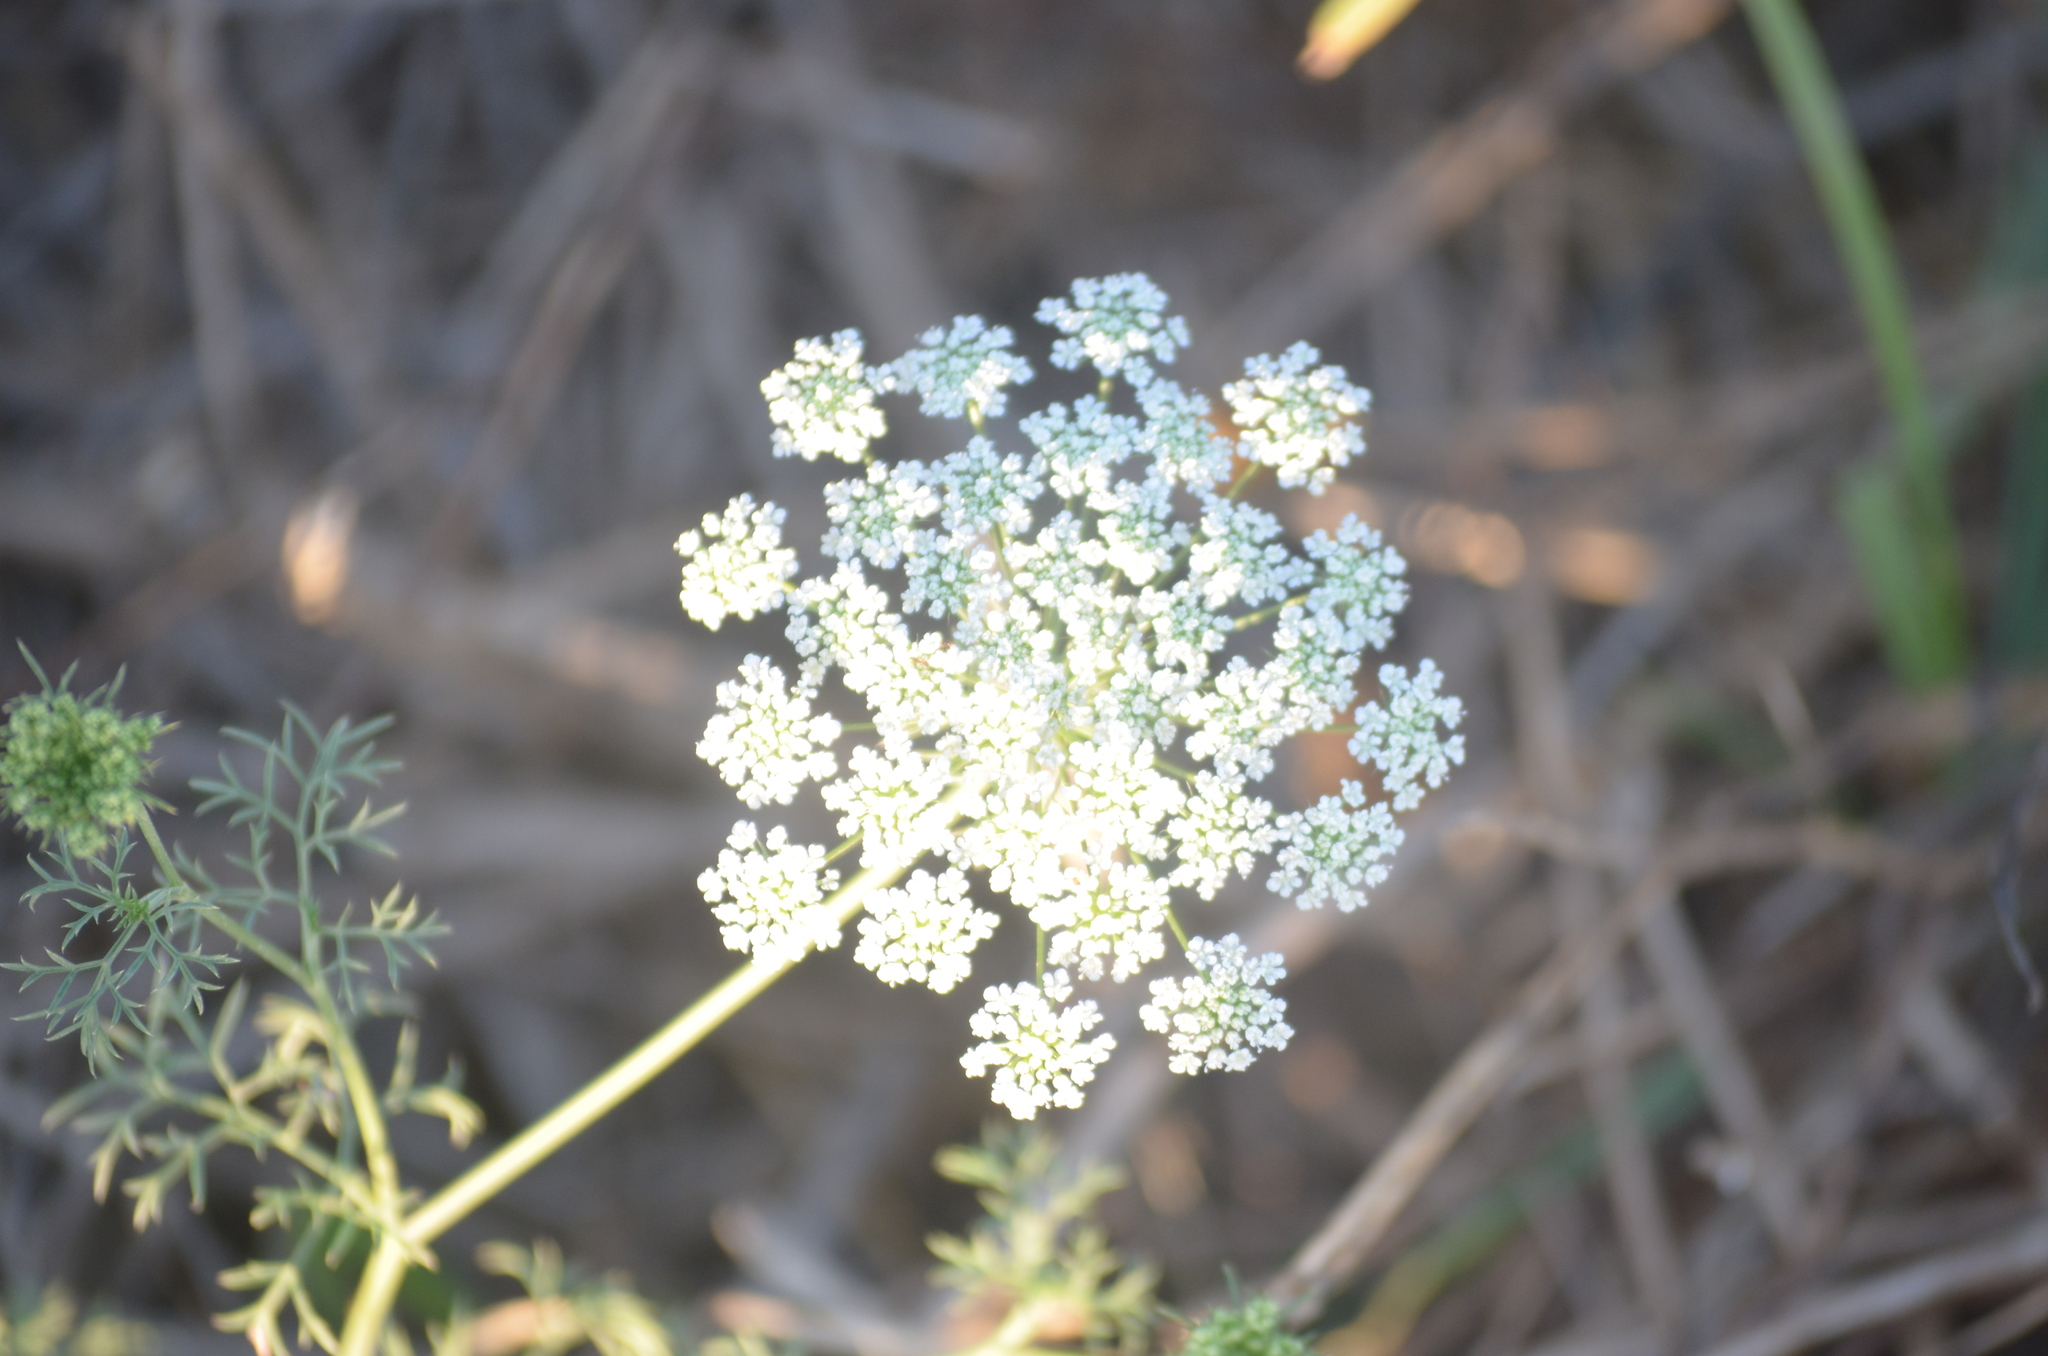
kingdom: Plantae
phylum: Tracheophyta
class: Magnoliopsida
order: Apiales
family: Apiaceae
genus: Daucus
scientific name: Daucus carota
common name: Wild carrot
